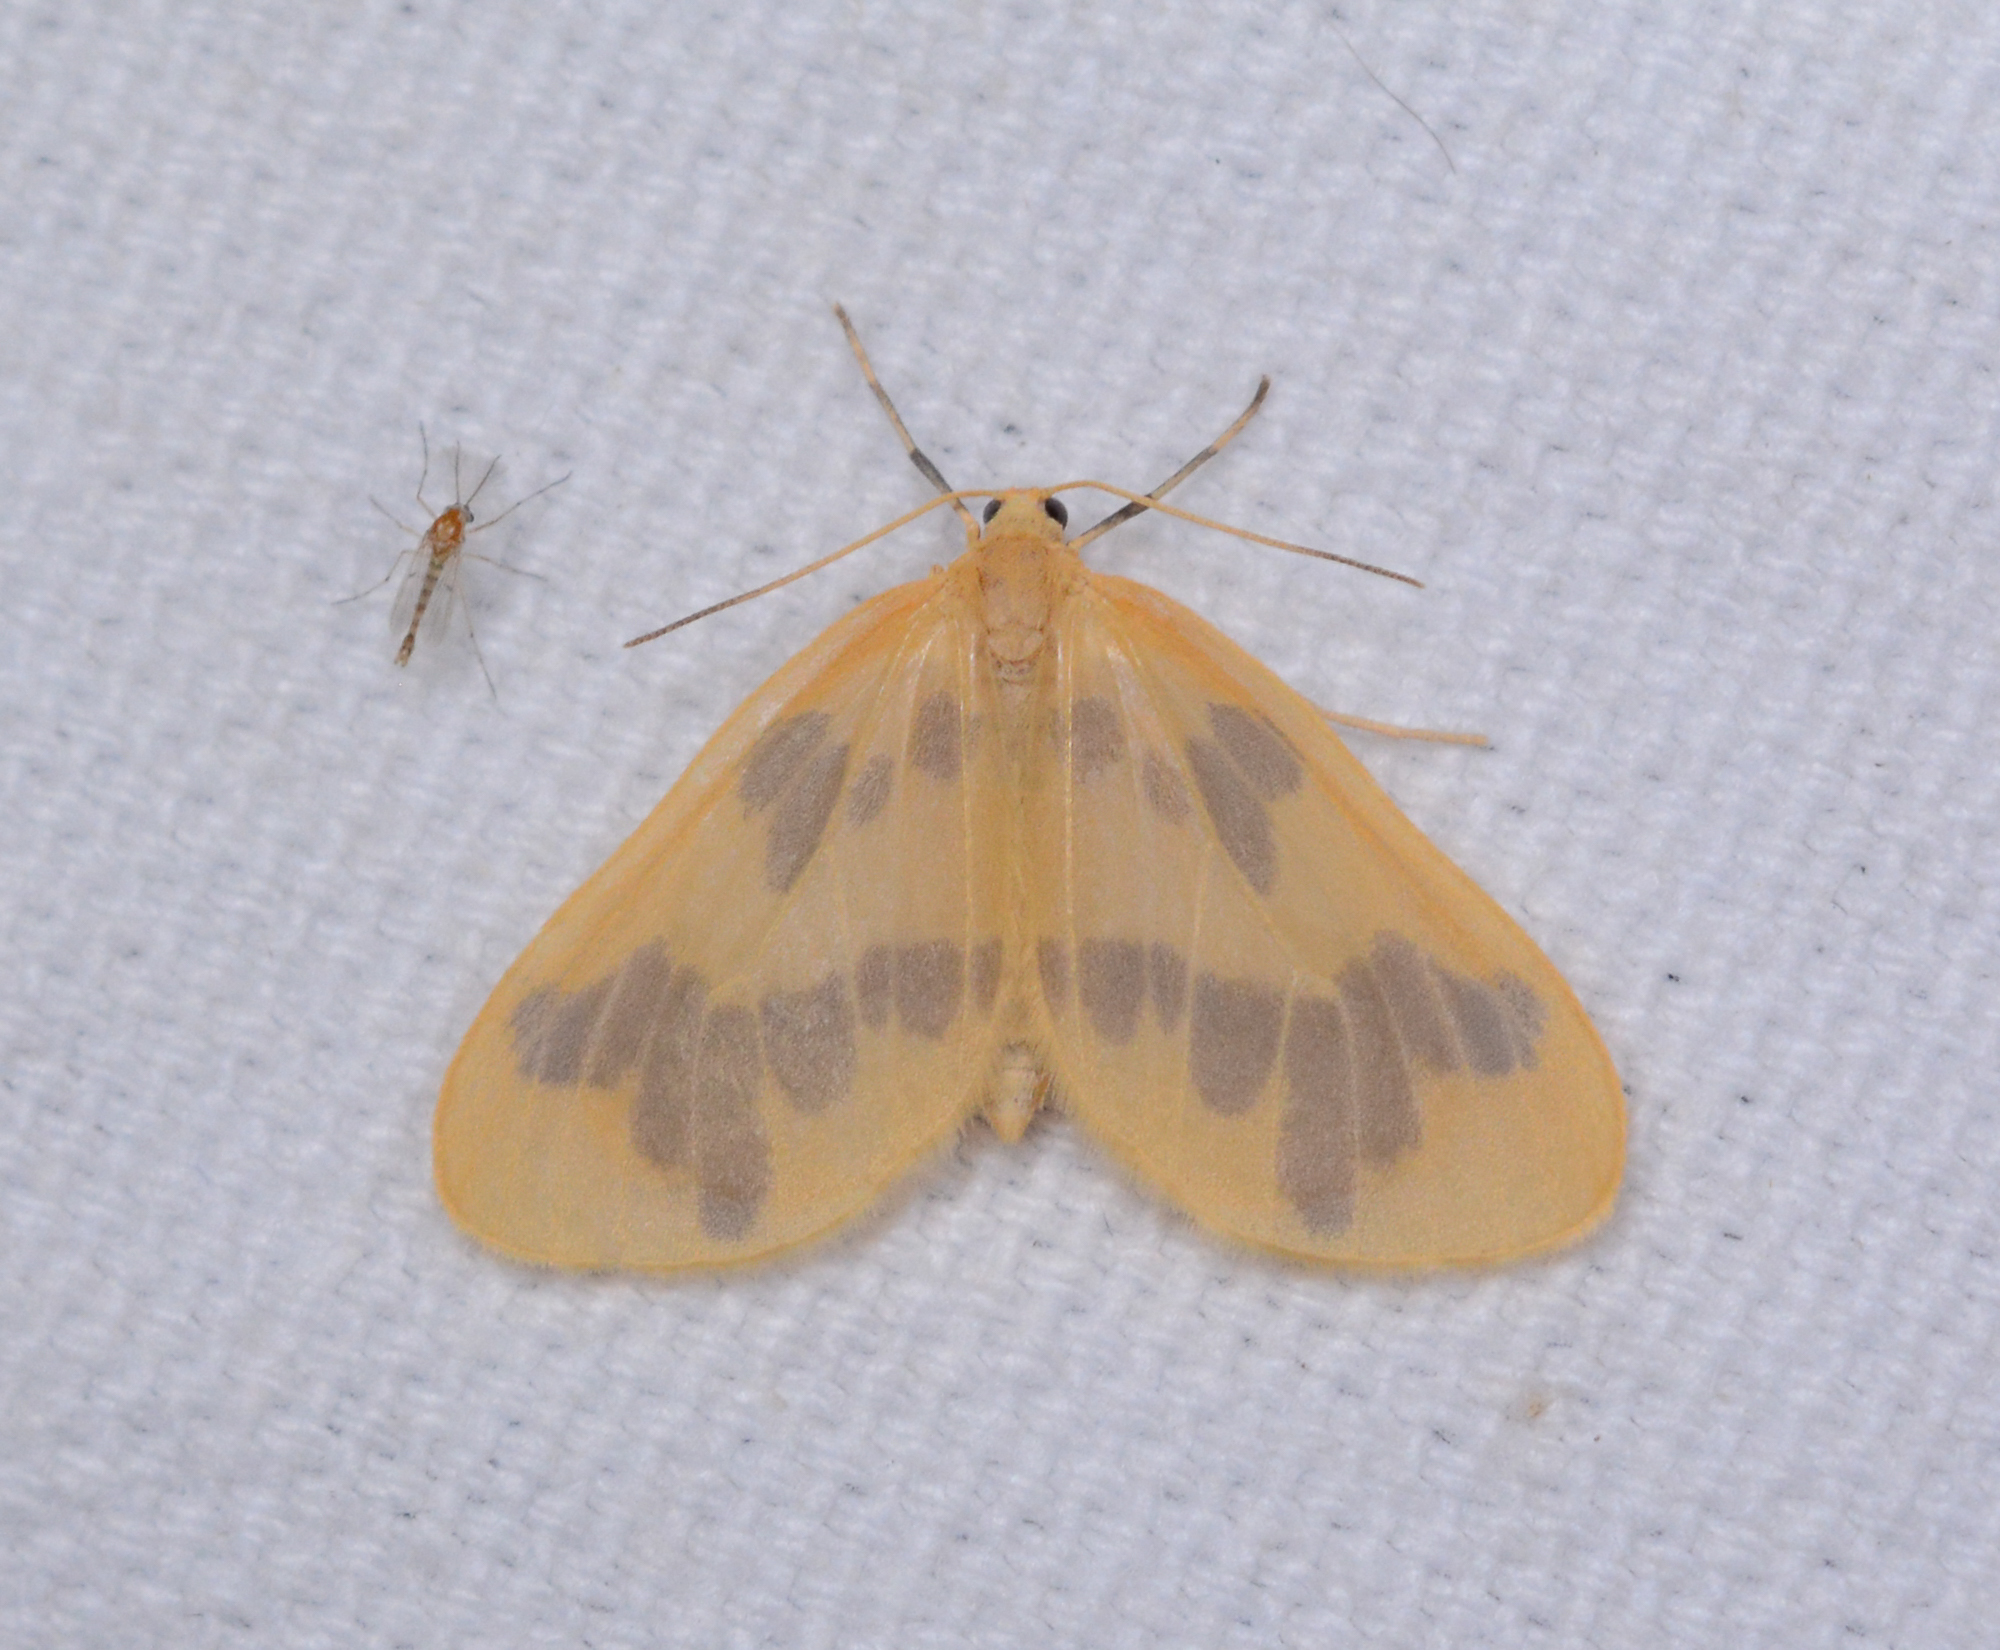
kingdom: Animalia
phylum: Arthropoda
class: Insecta
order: Lepidoptera
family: Geometridae
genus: Eubaphe
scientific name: Eubaphe mendica
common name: Beggar
